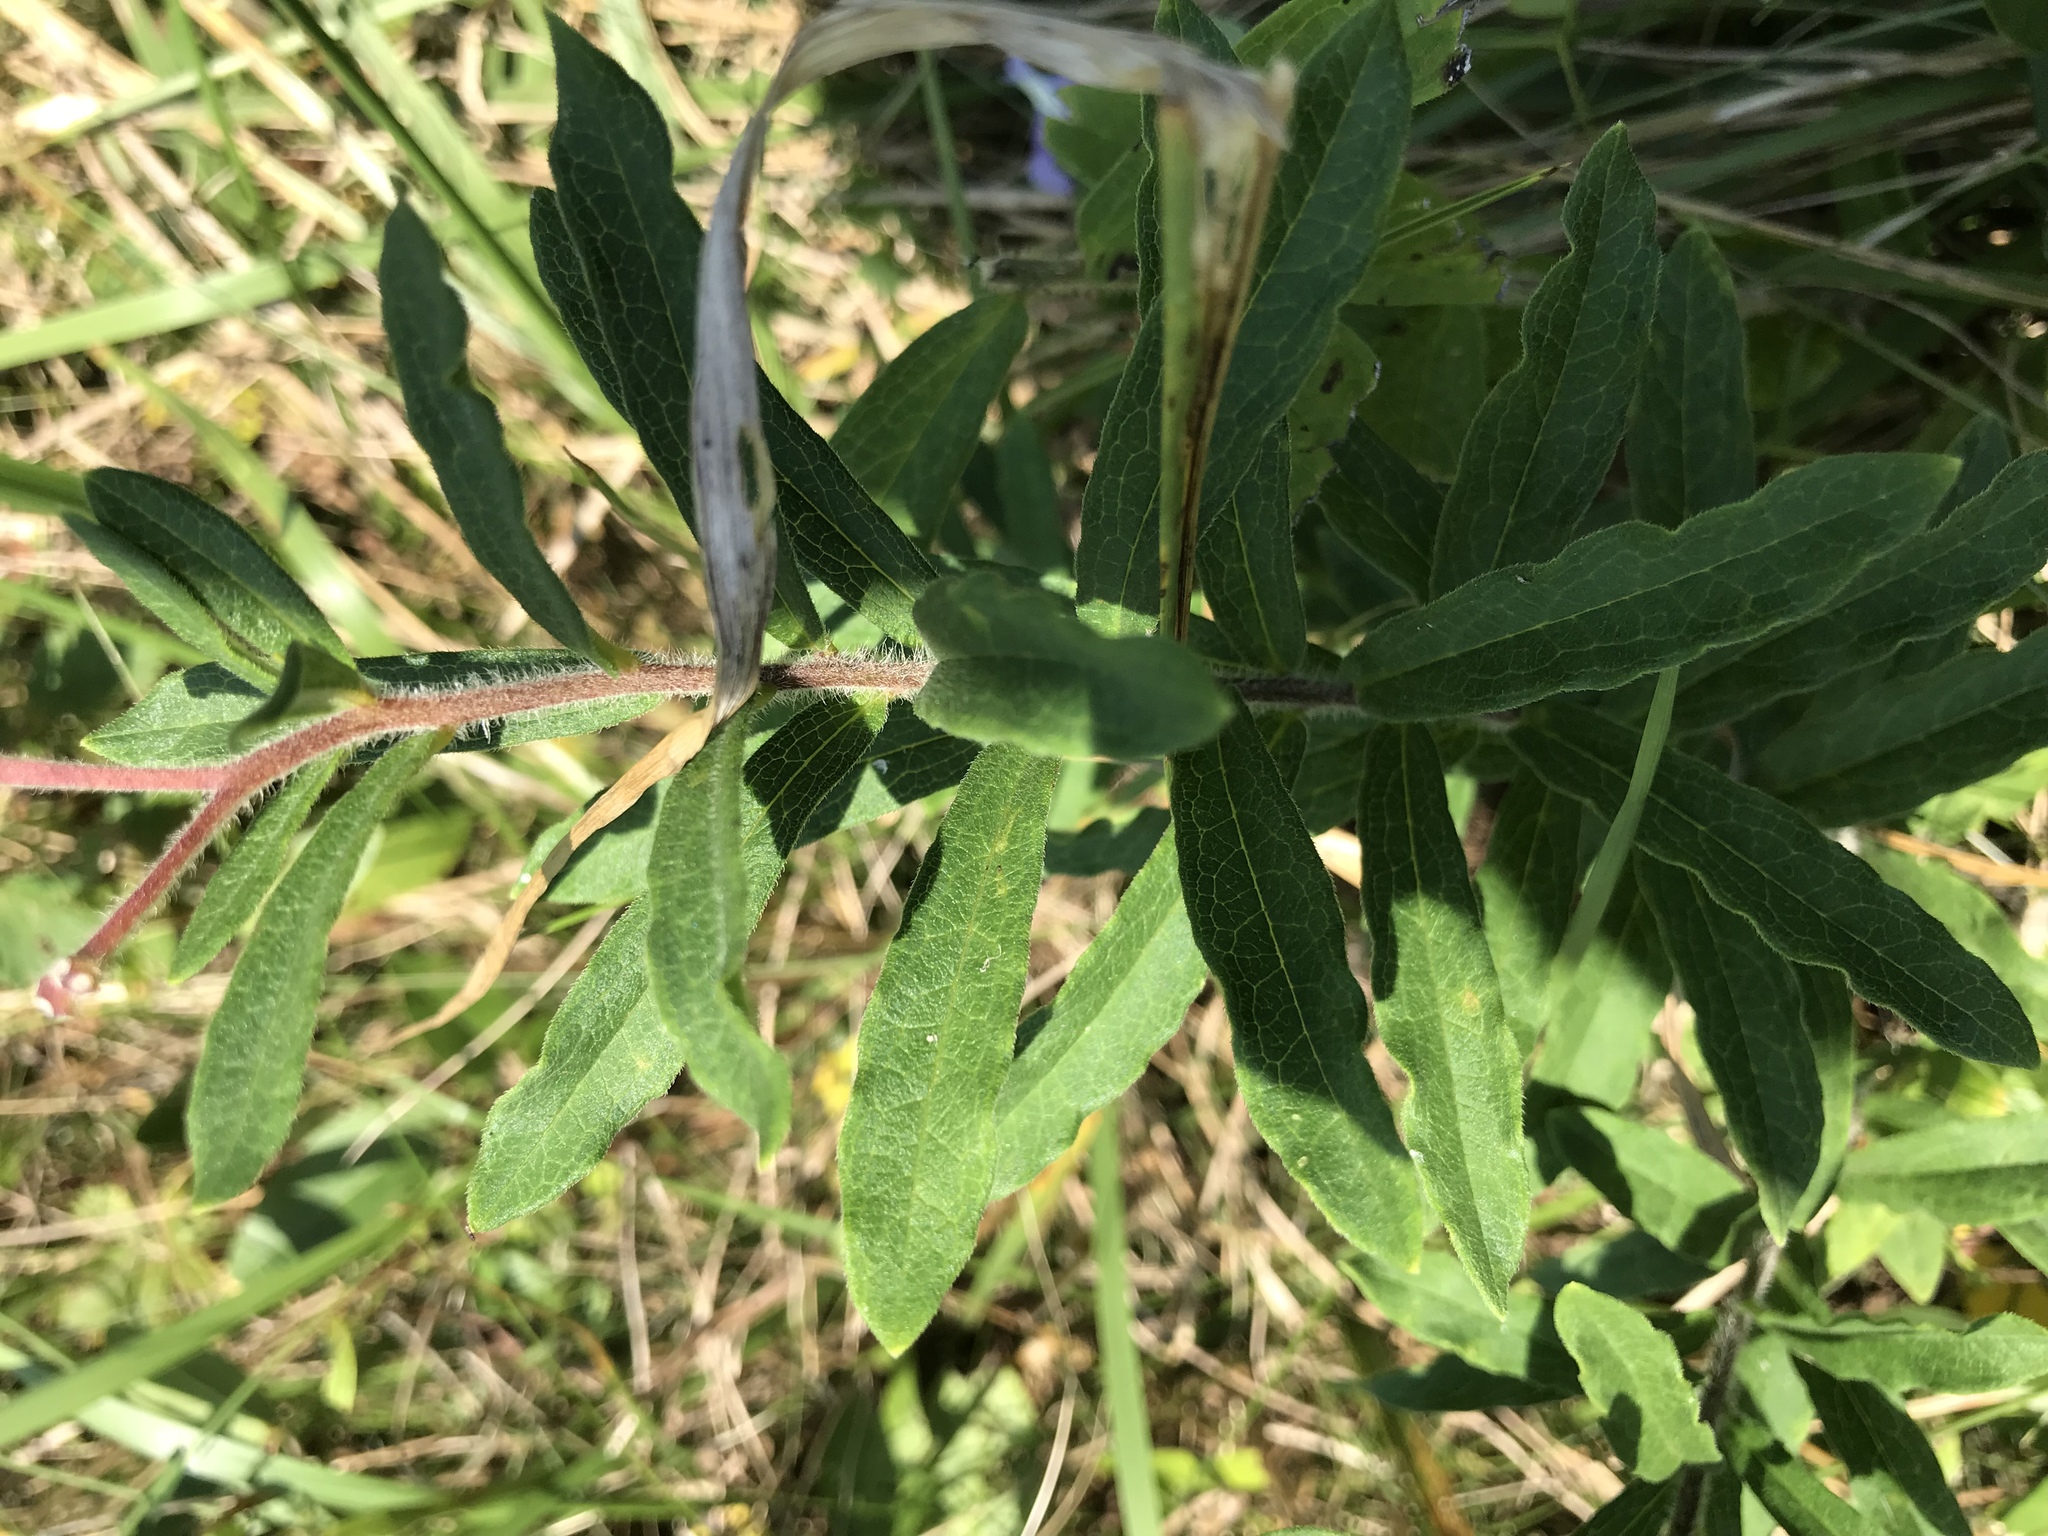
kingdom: Plantae
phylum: Tracheophyta
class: Magnoliopsida
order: Gentianales
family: Apocynaceae
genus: Asclepias
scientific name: Asclepias tuberosa
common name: Butterfly milkweed
